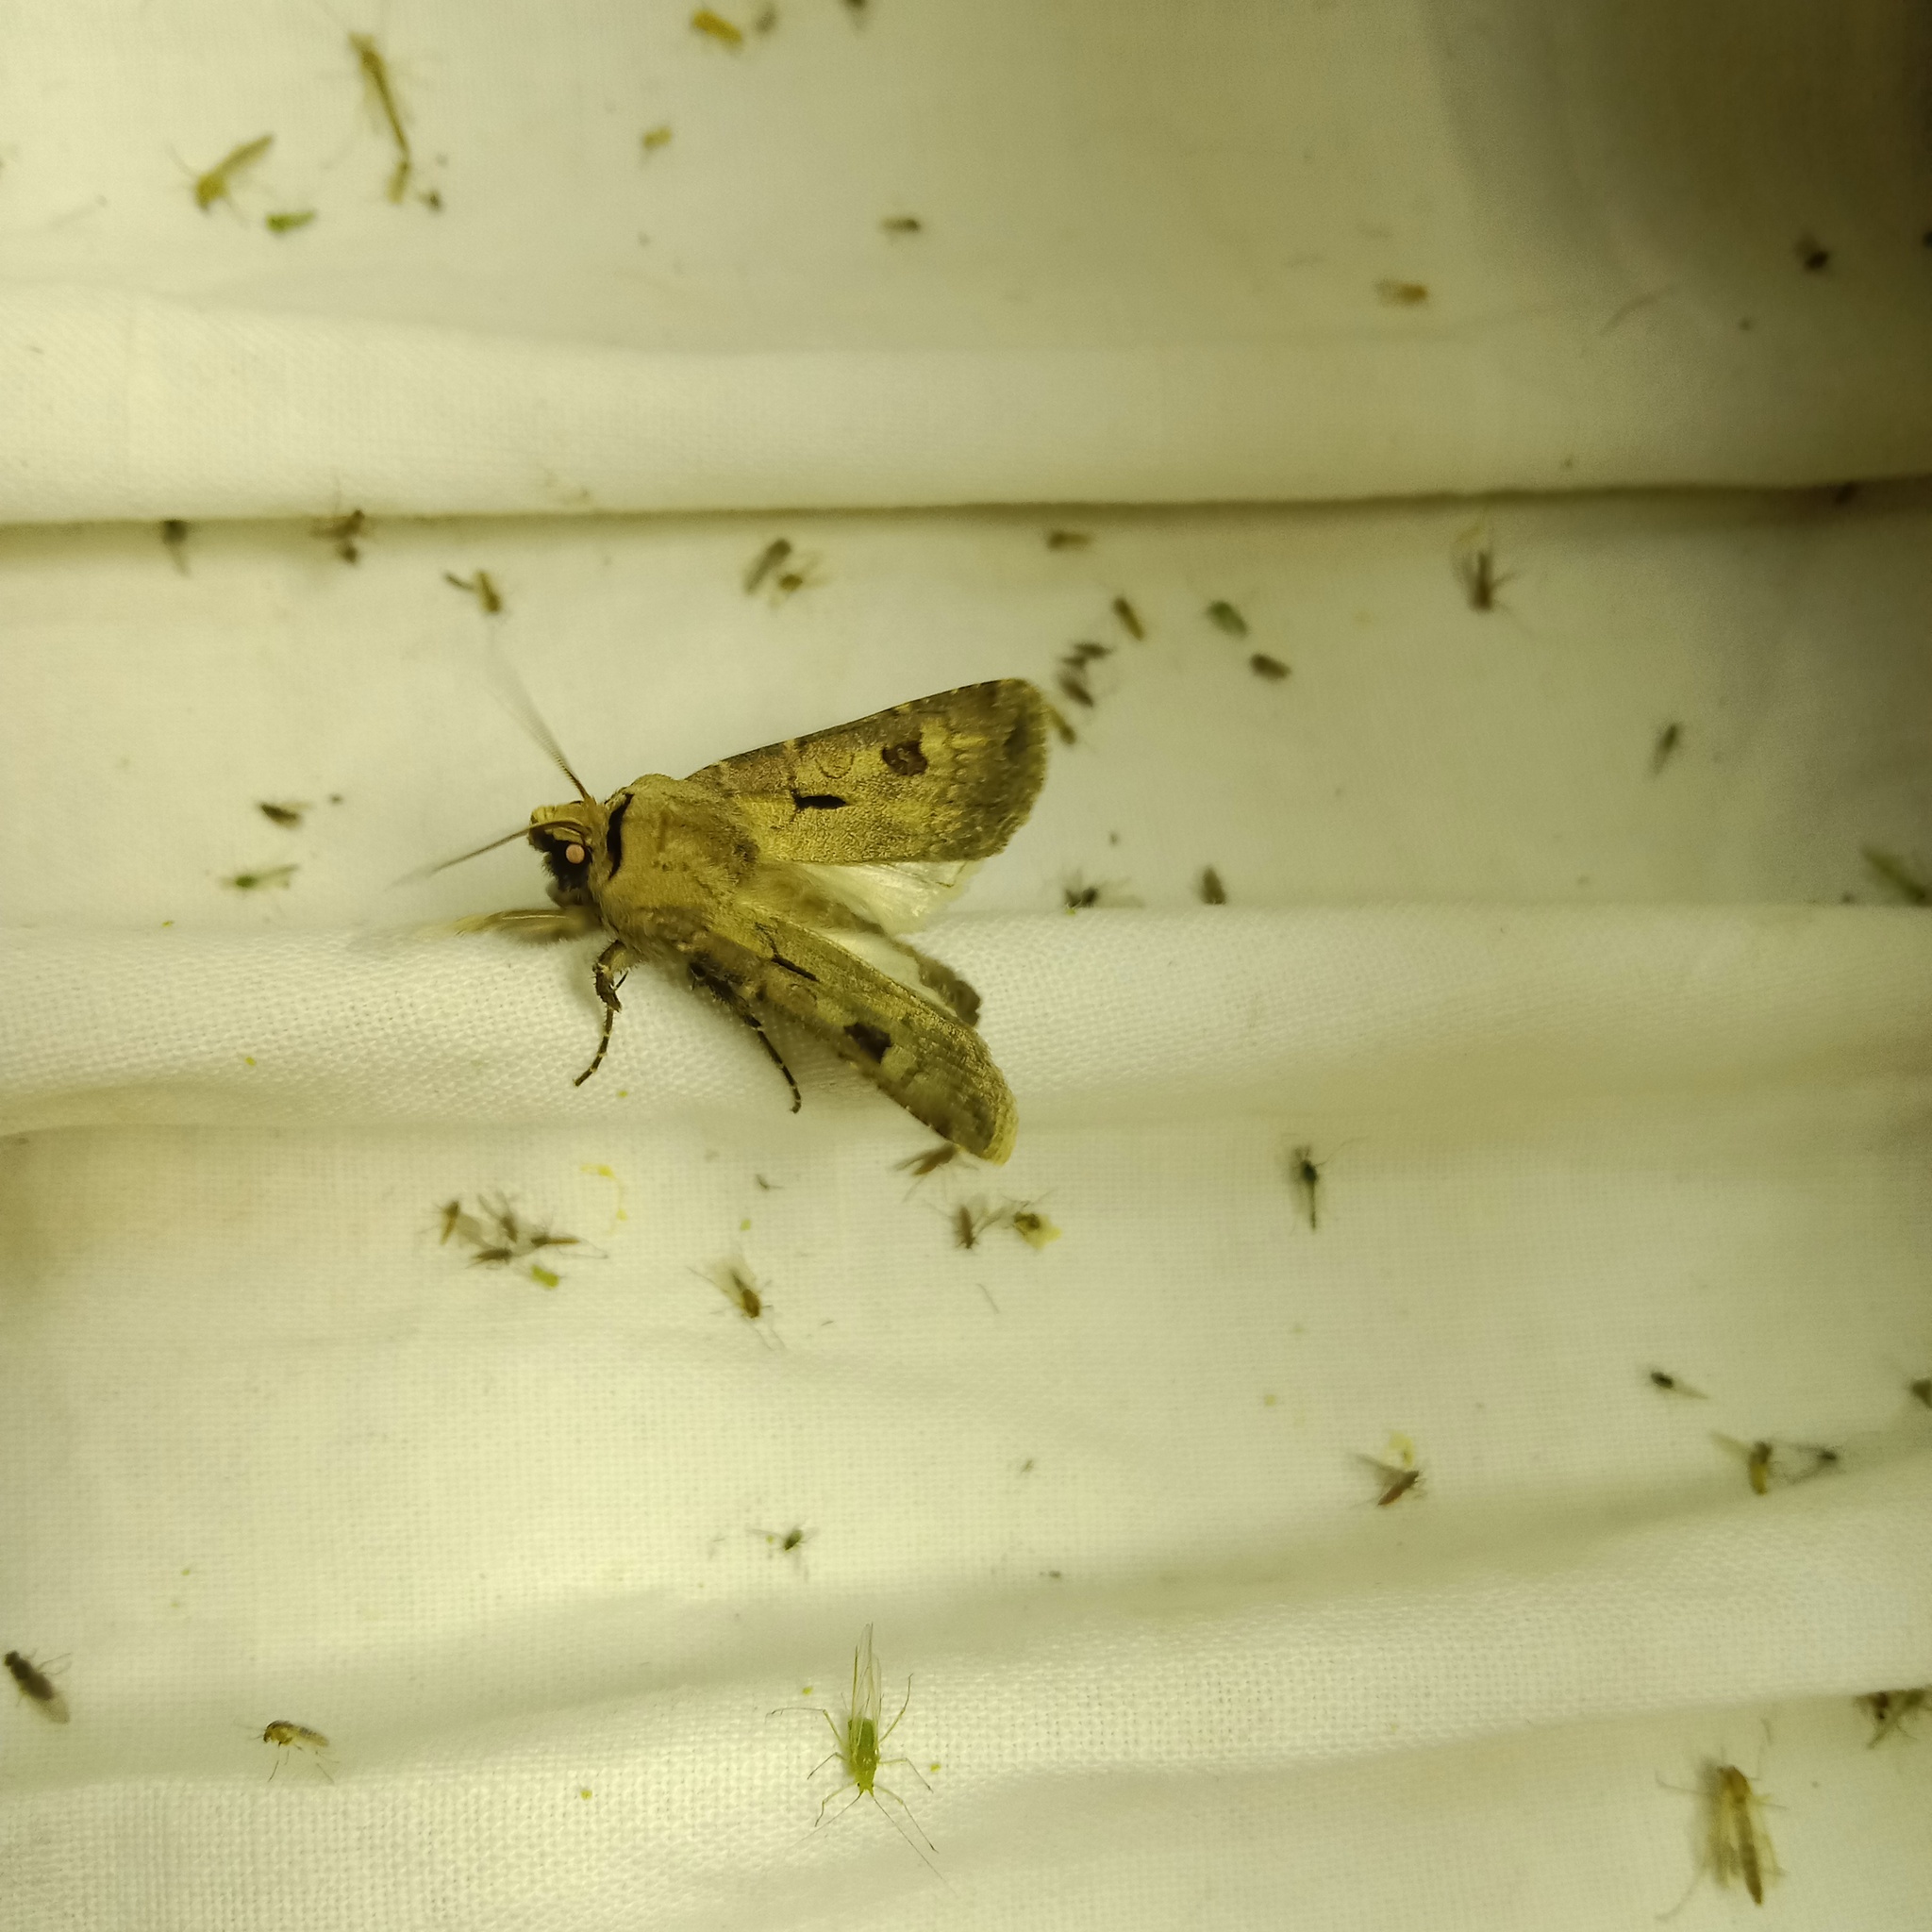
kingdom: Animalia
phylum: Arthropoda
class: Insecta
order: Lepidoptera
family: Noctuidae
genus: Agrotis
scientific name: Agrotis exclamationis
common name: Heart and dart
